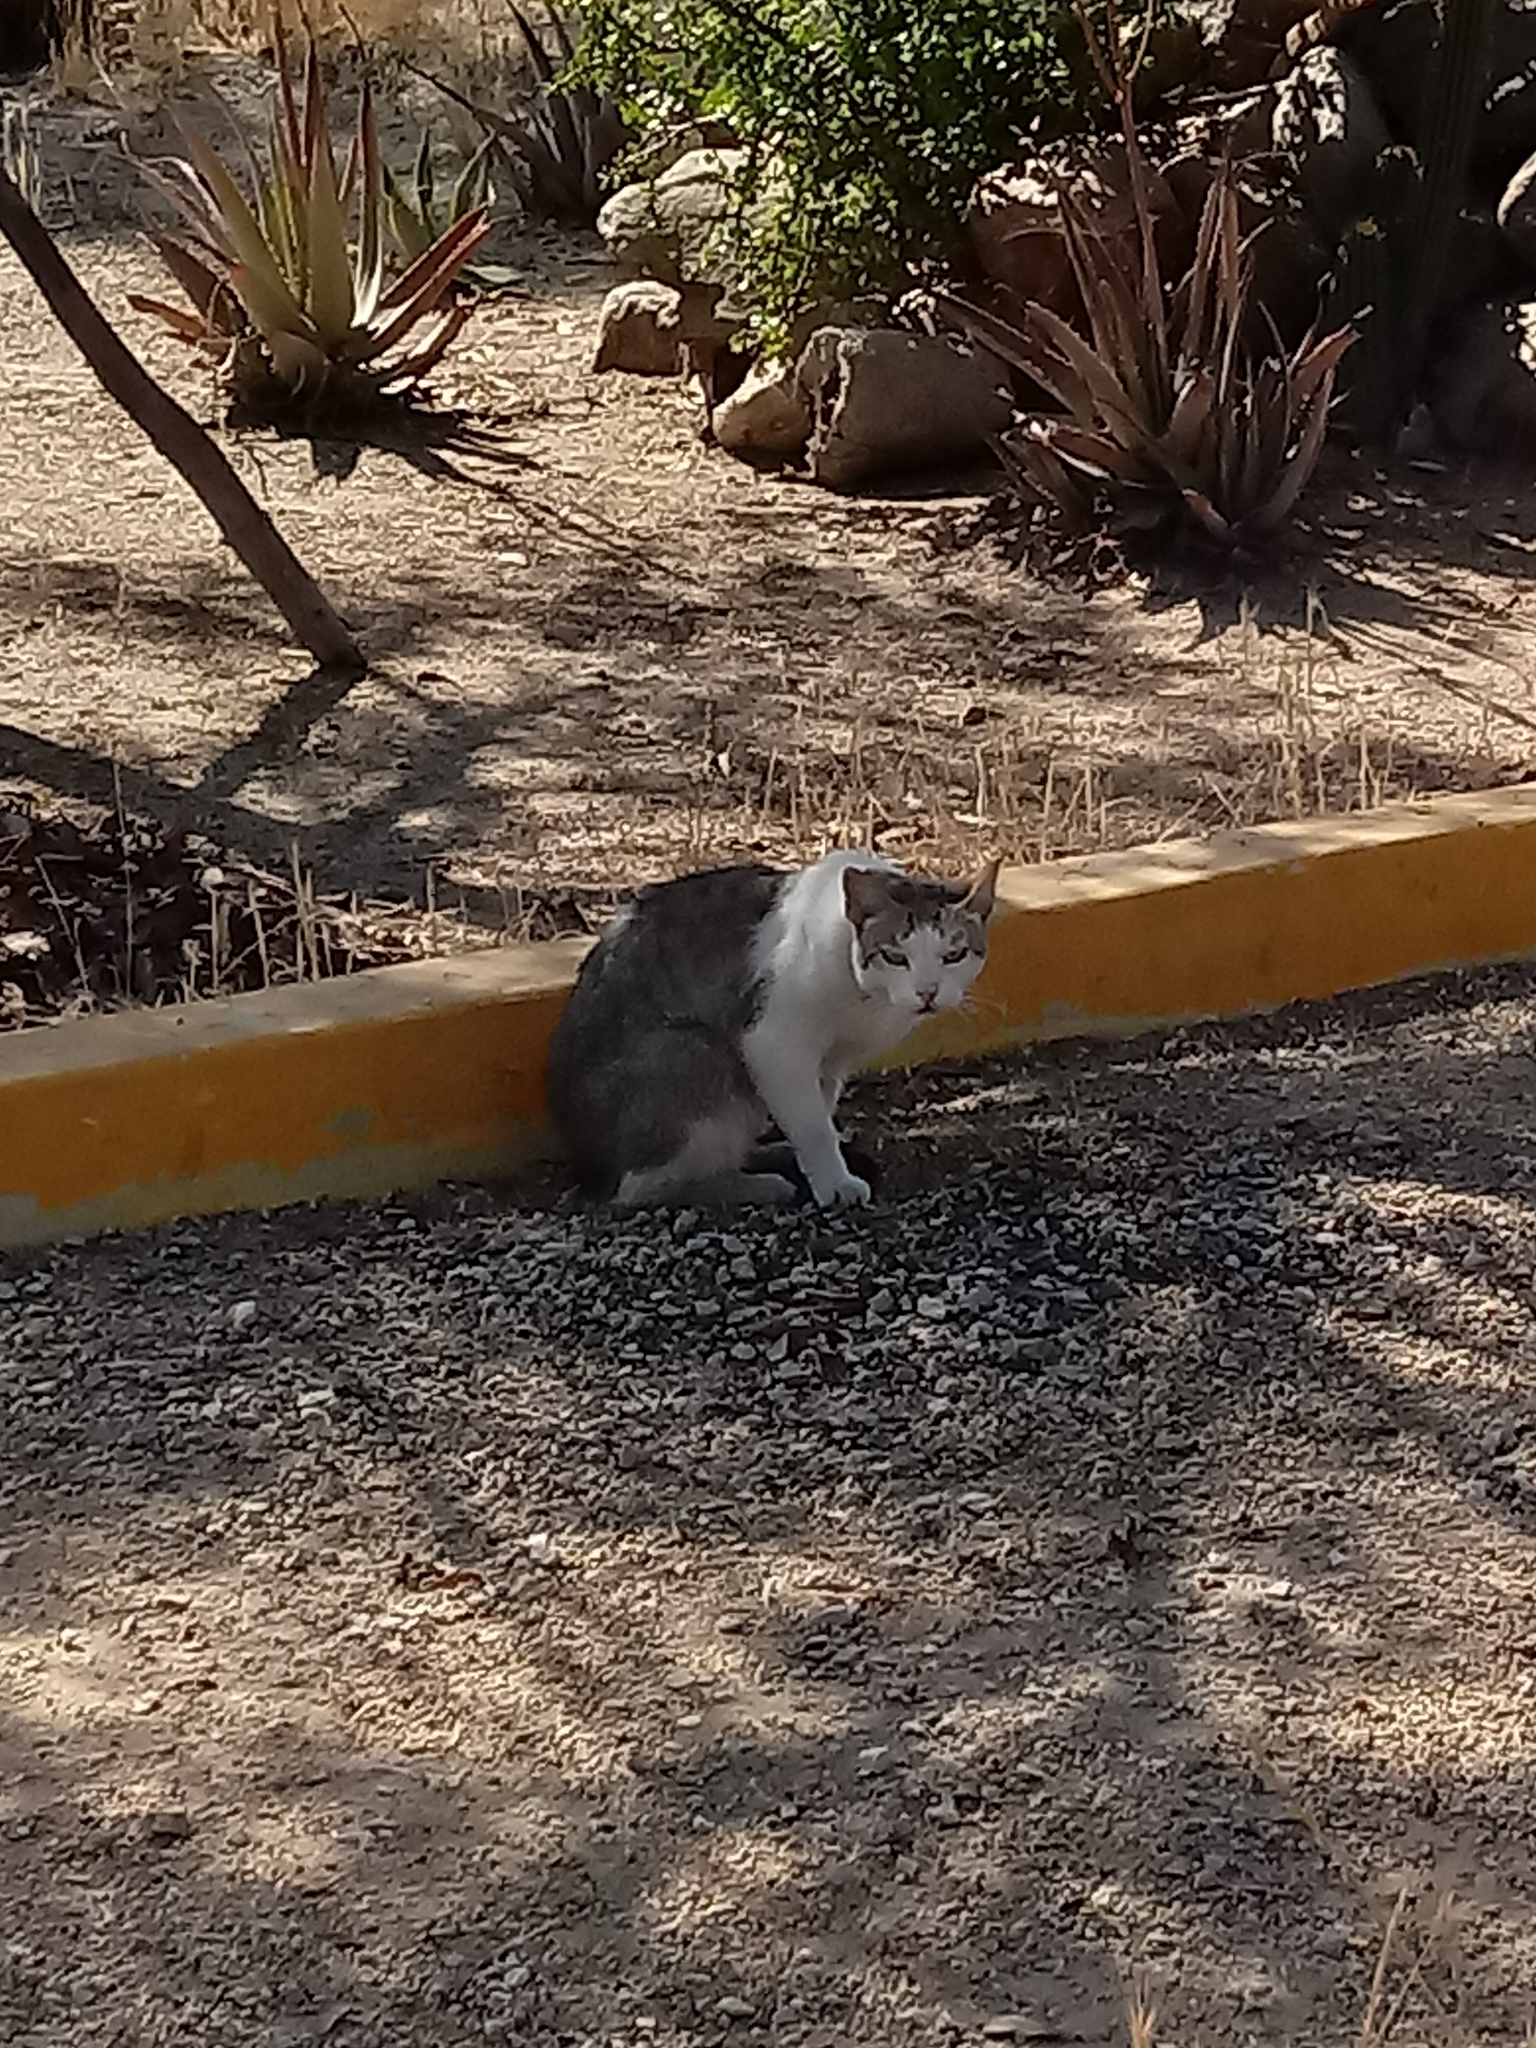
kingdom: Animalia
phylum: Chordata
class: Mammalia
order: Carnivora
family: Felidae
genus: Felis
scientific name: Felis catus
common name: Domestic cat
